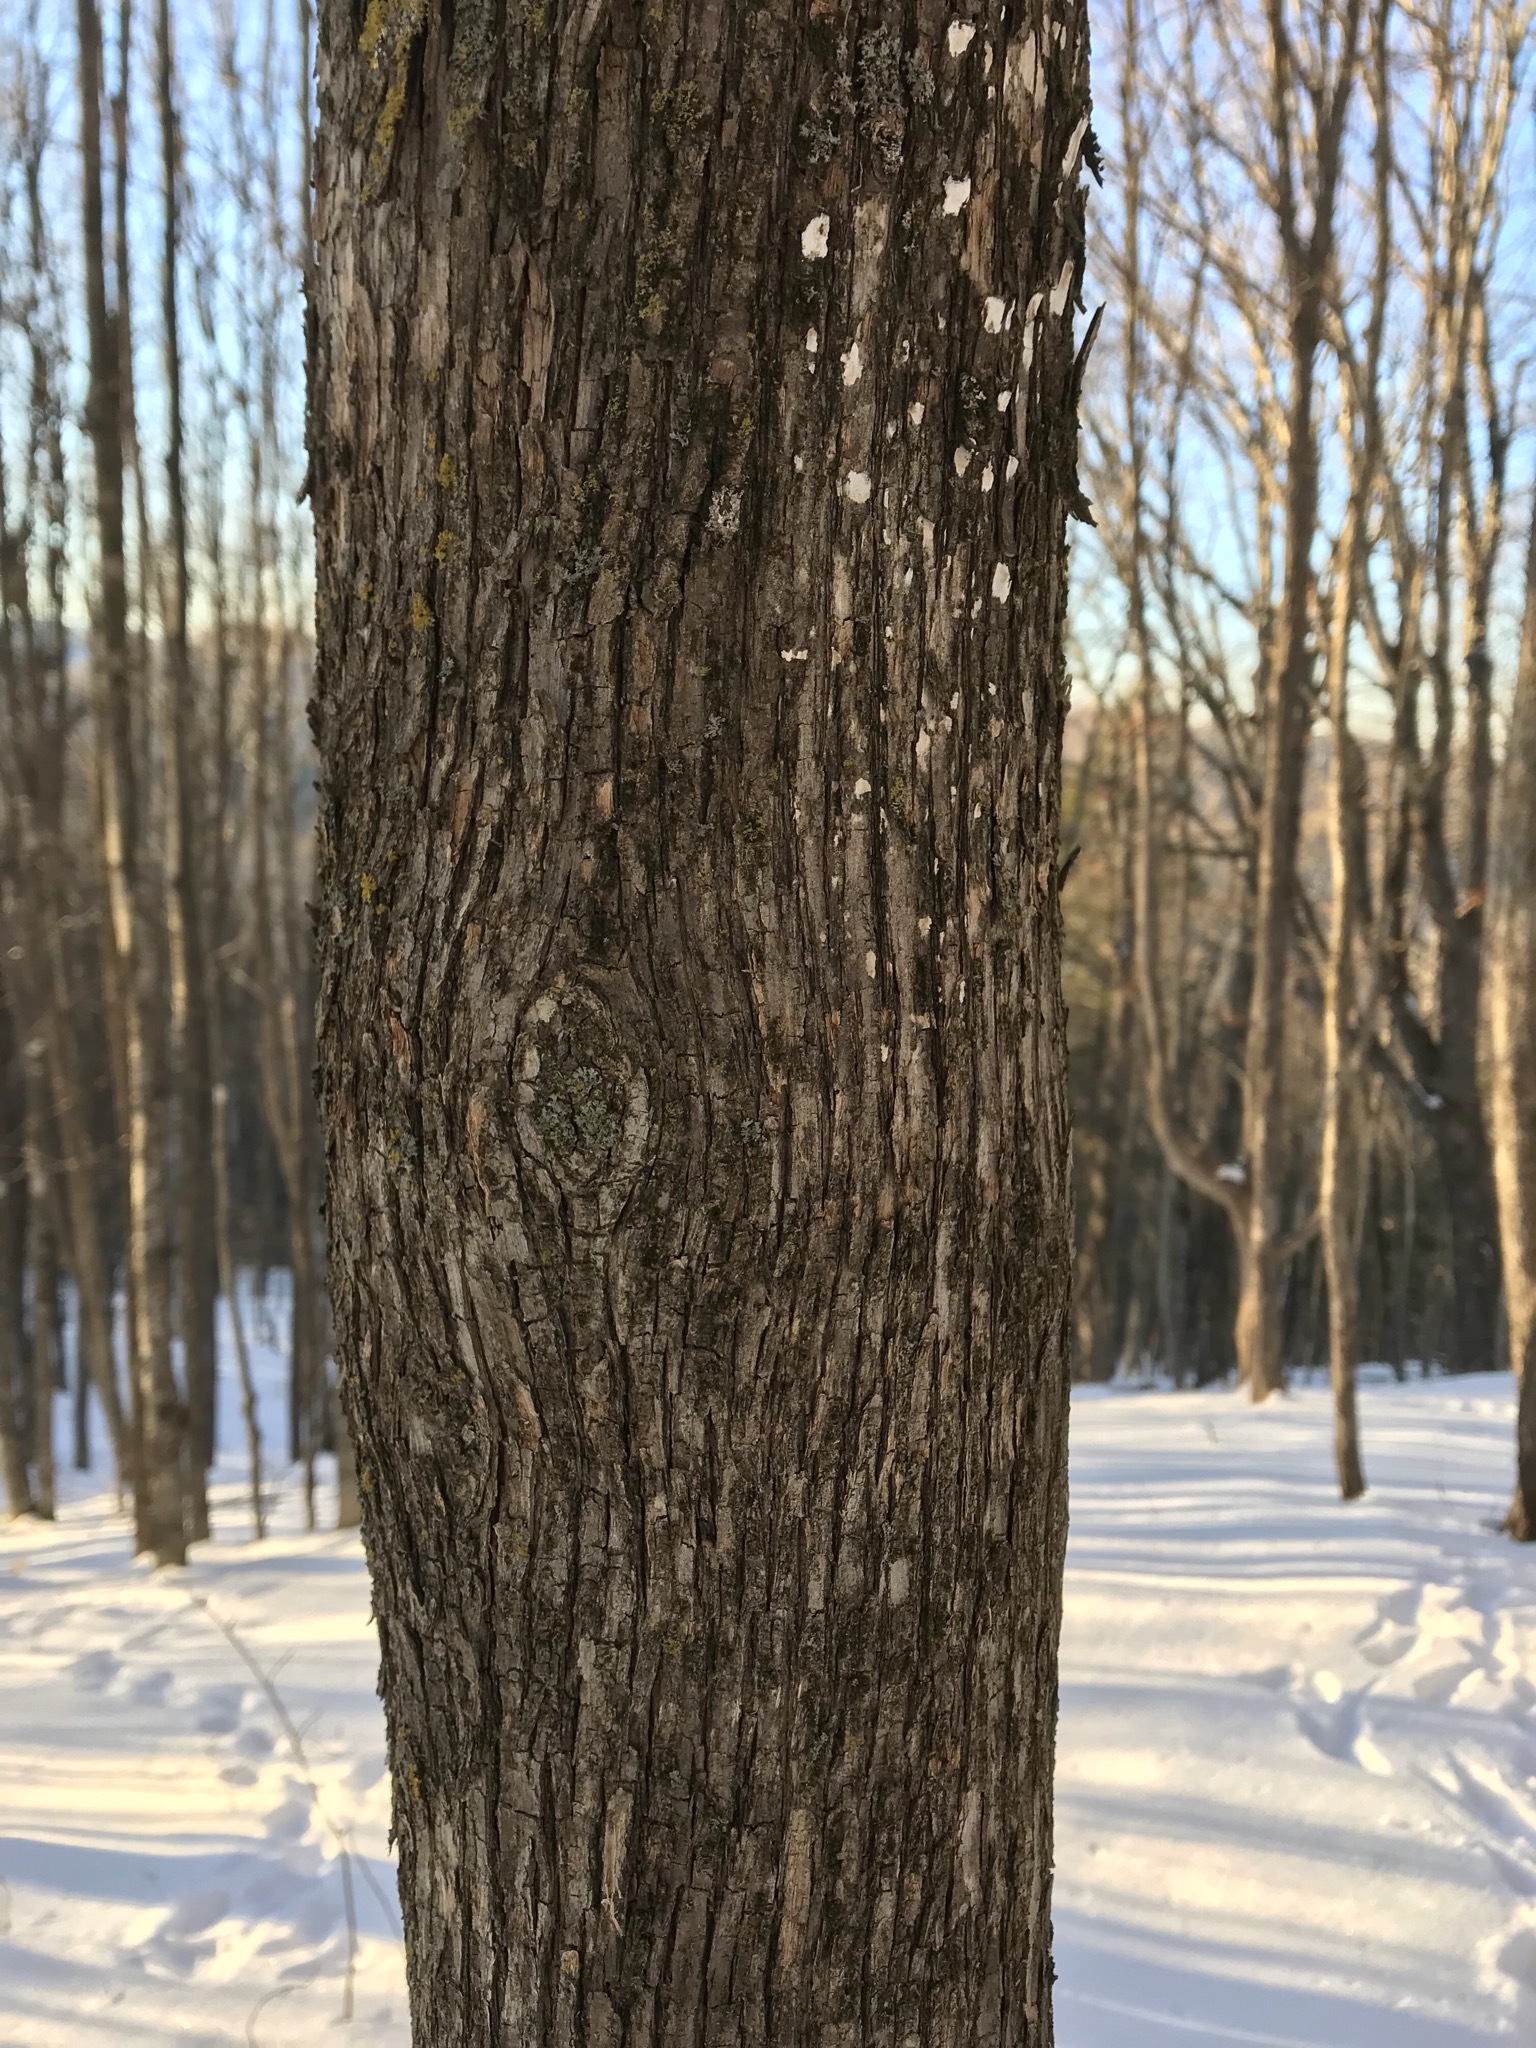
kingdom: Plantae
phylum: Tracheophyta
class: Magnoliopsida
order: Fagales
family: Betulaceae
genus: Ostrya
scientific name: Ostrya virginiana
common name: Ironwood
